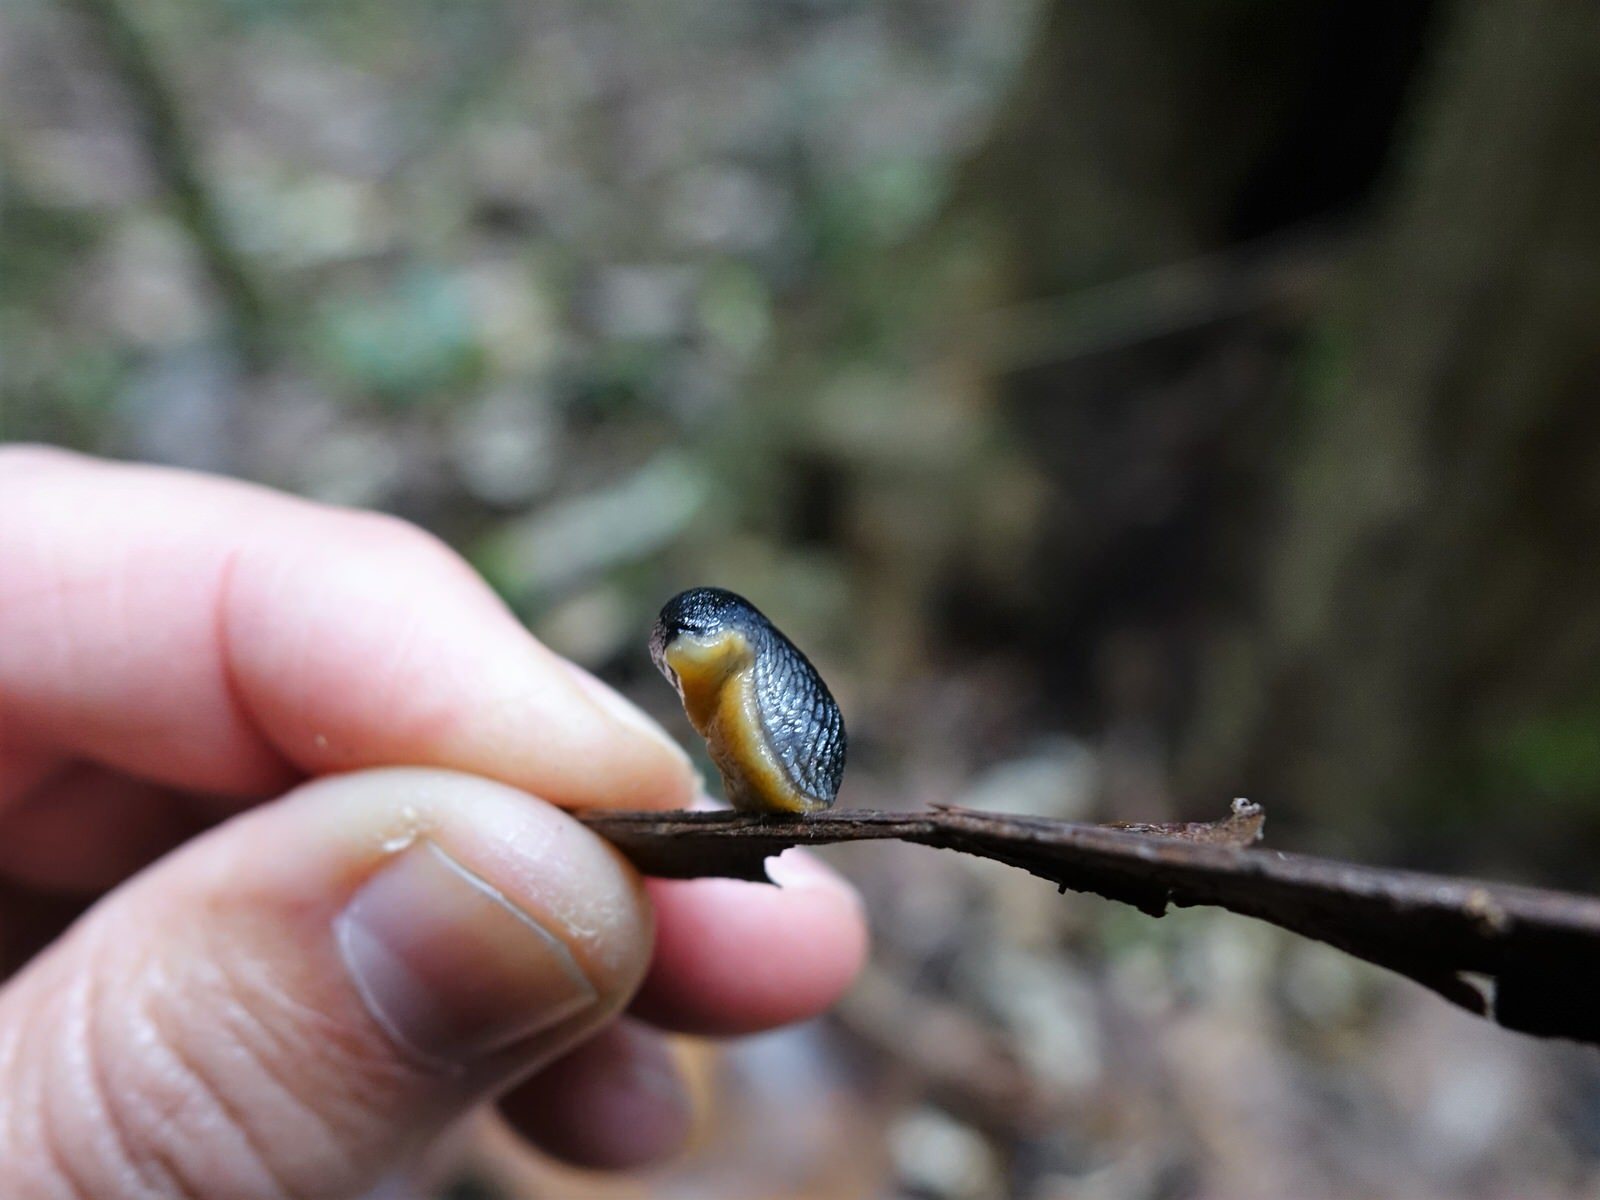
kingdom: Animalia
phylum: Mollusca
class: Gastropoda
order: Stylommatophora
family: Arionidae
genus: Kobeltia
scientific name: Kobeltia
